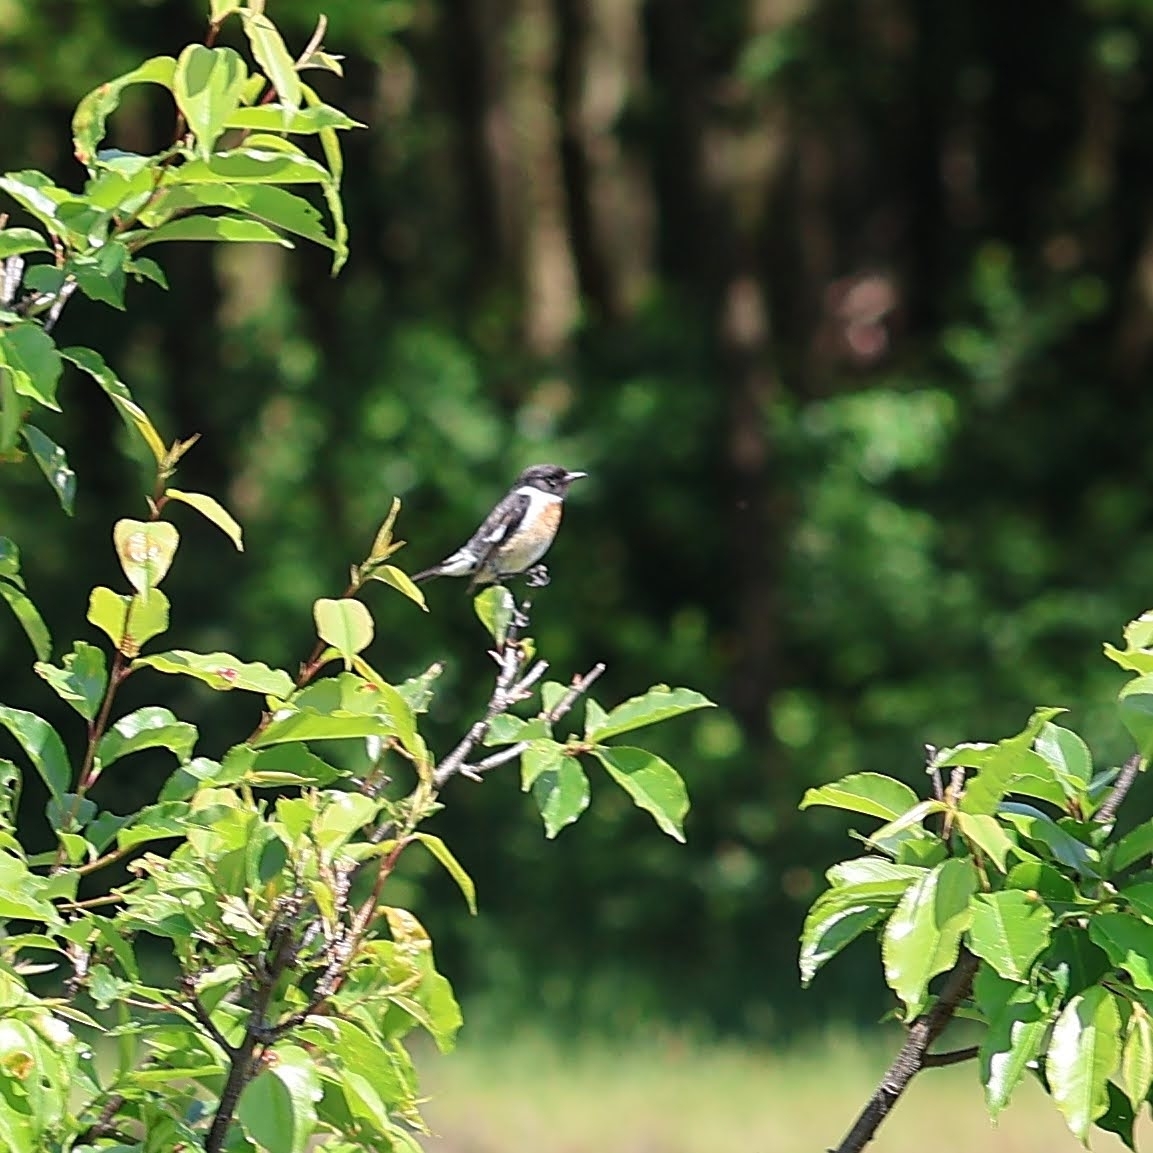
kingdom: Animalia
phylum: Chordata
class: Aves
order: Passeriformes
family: Muscicapidae
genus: Saxicola
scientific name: Saxicola rubicola
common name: European stonechat
